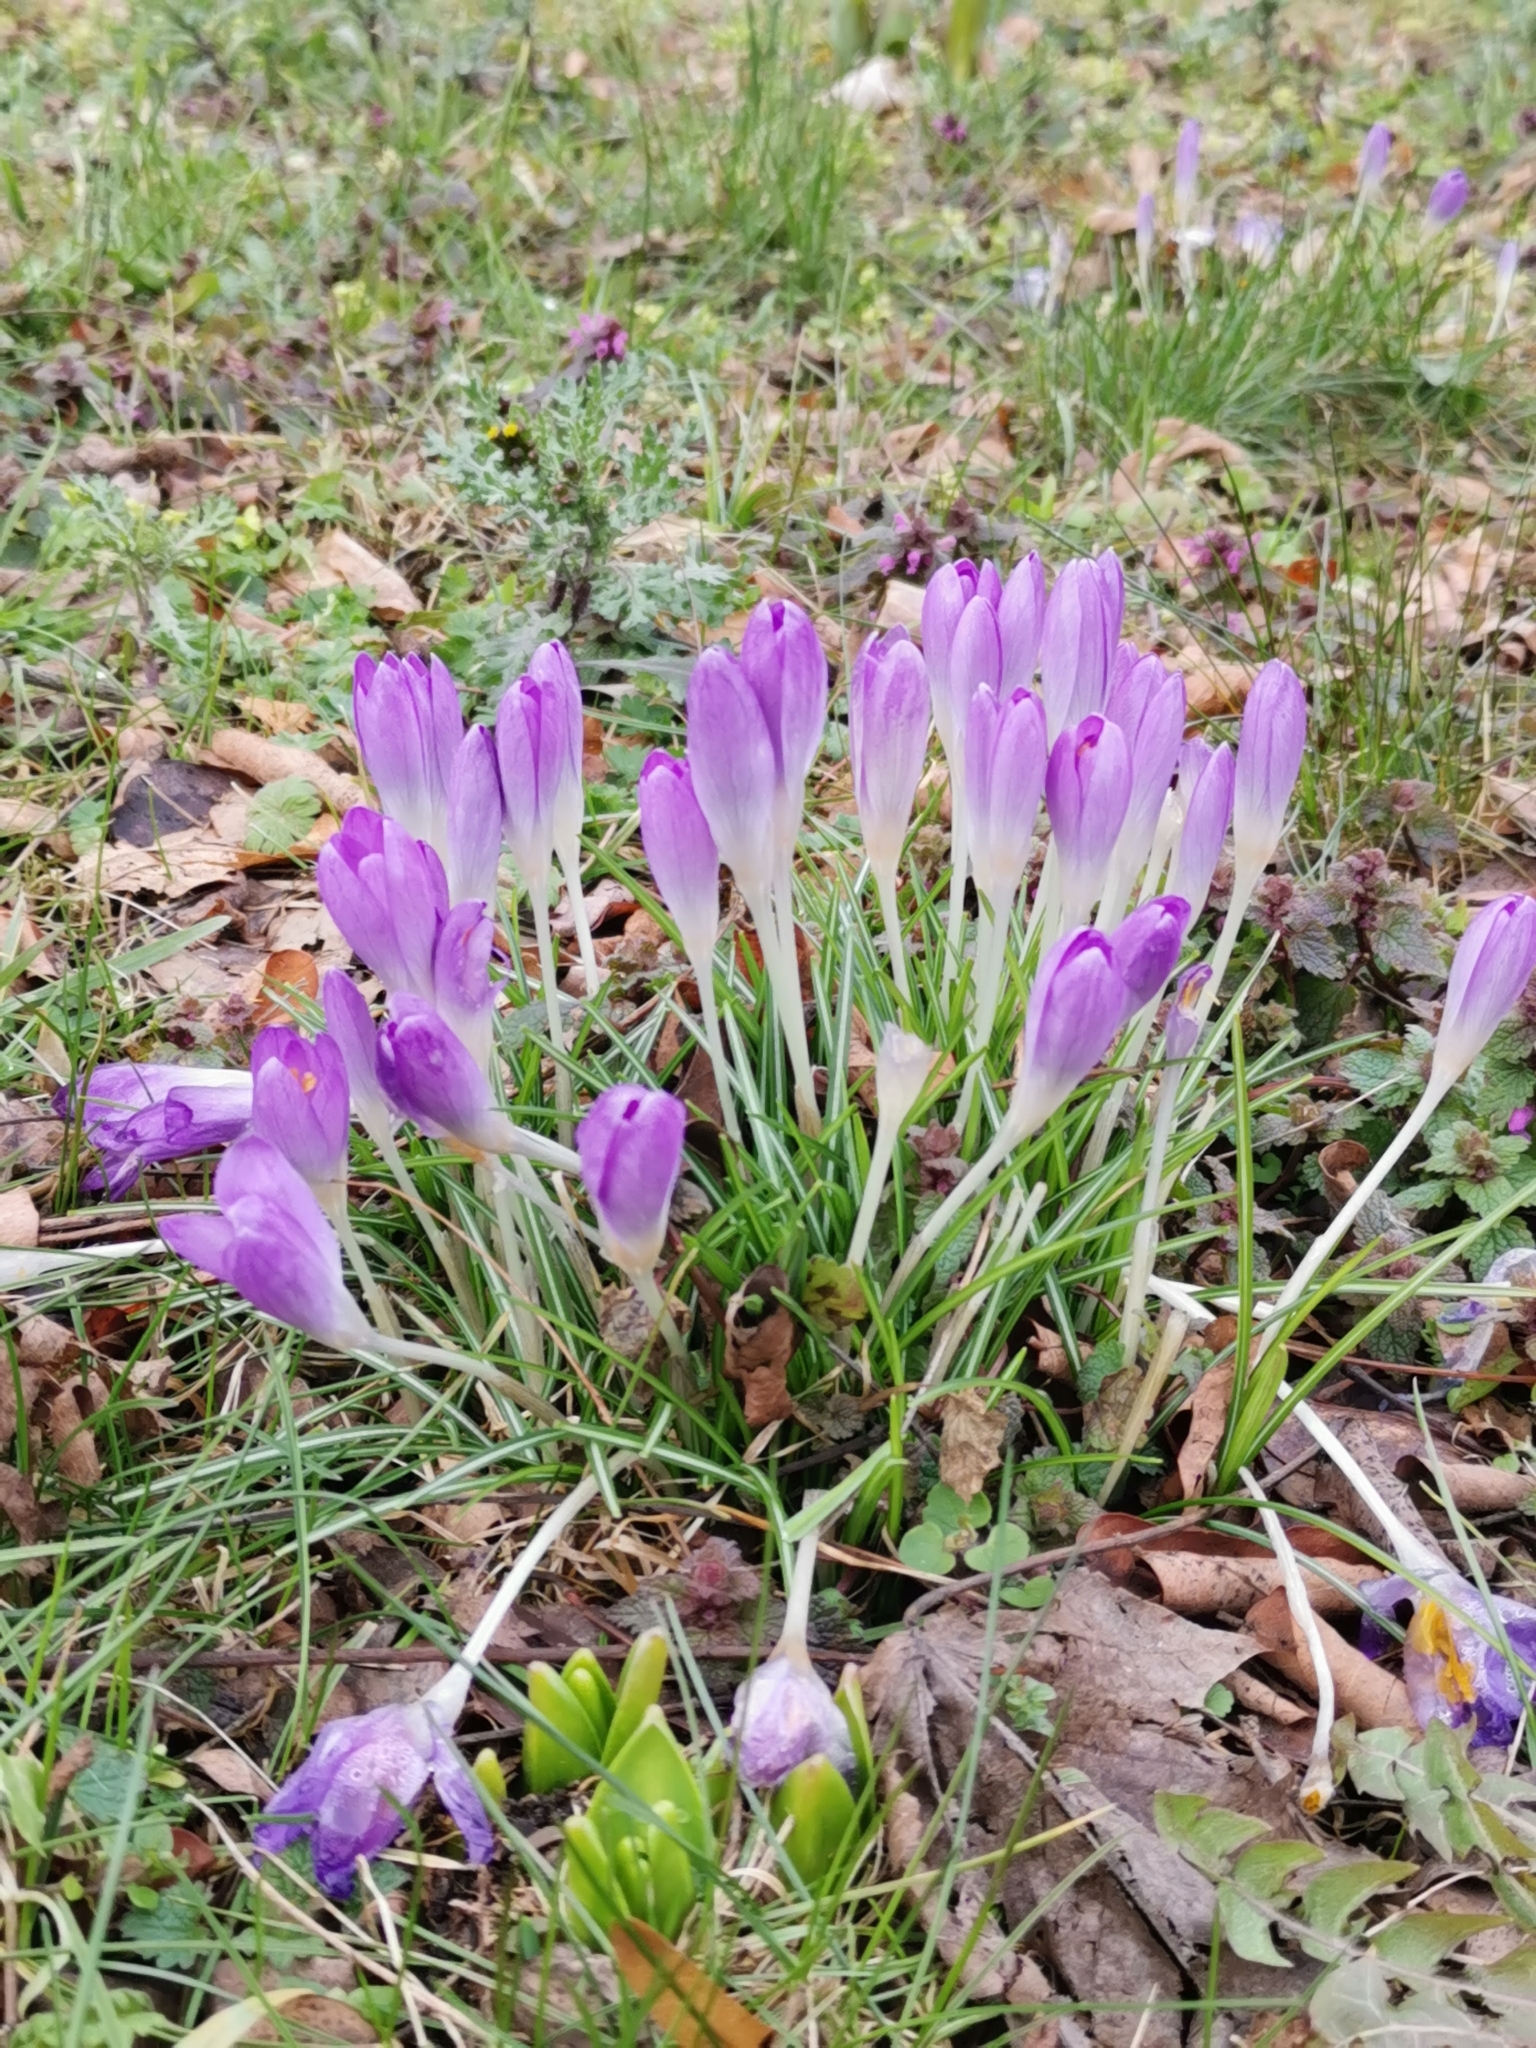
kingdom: Plantae
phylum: Tracheophyta
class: Liliopsida
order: Asparagales
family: Iridaceae
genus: Crocus
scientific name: Crocus tommasinianus
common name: Early crocus
